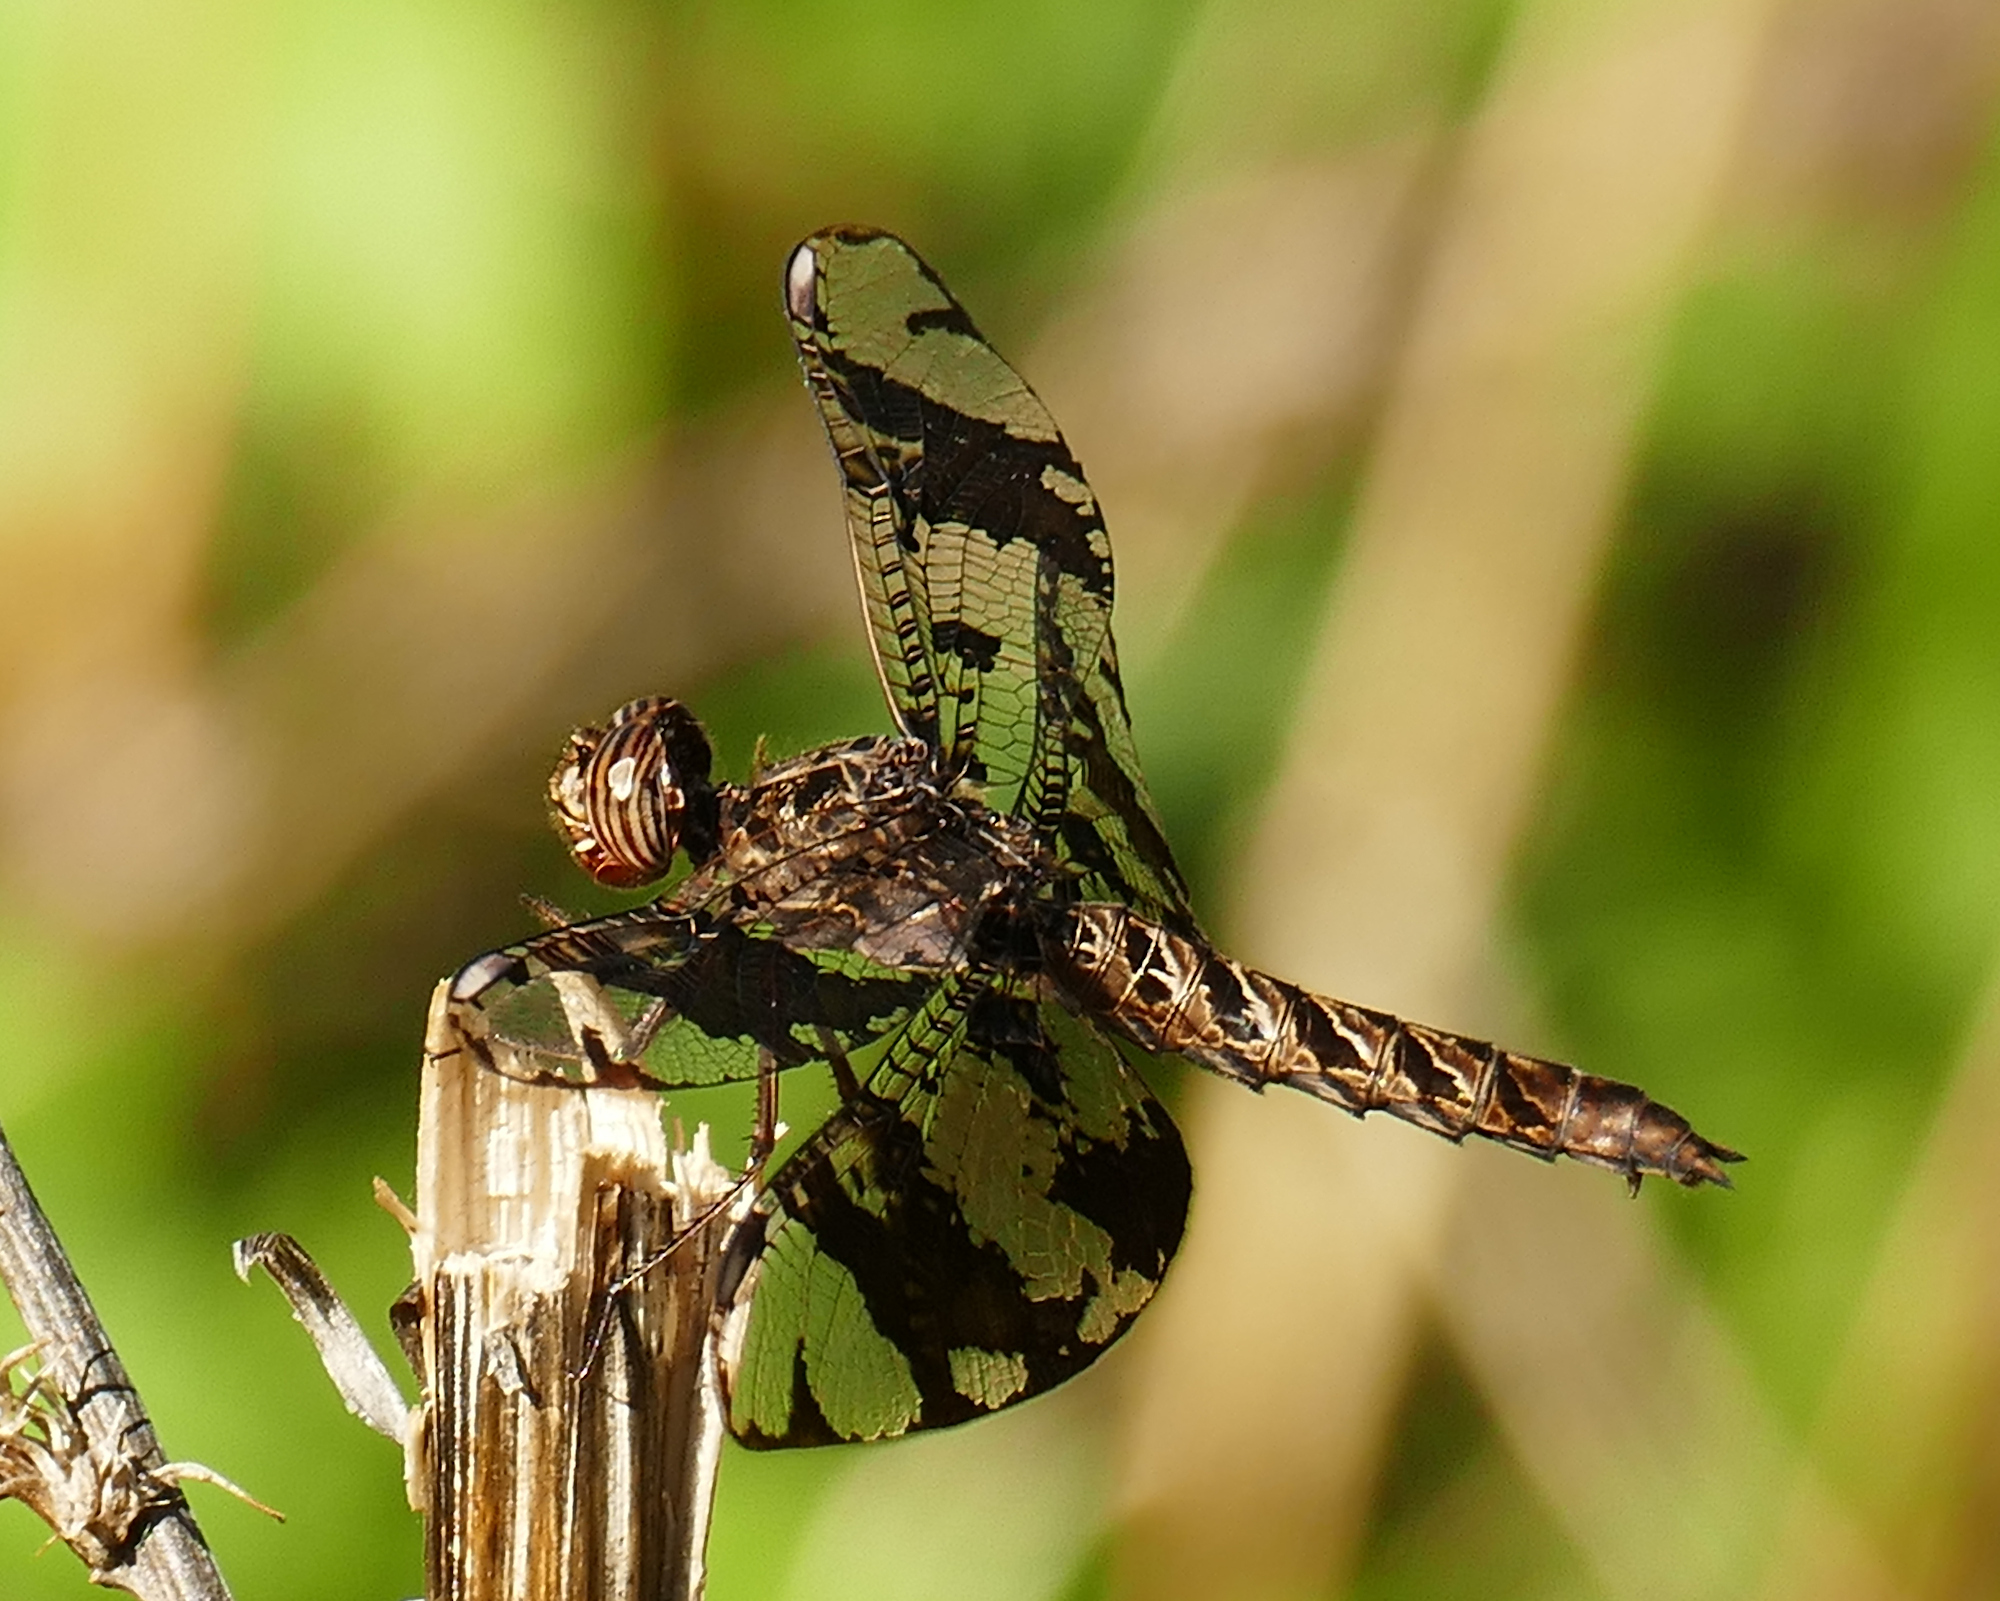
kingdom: Animalia
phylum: Arthropoda
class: Insecta
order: Odonata
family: Libellulidae
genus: Pseudoleon
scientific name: Pseudoleon superbus
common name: Filigree skimmer
